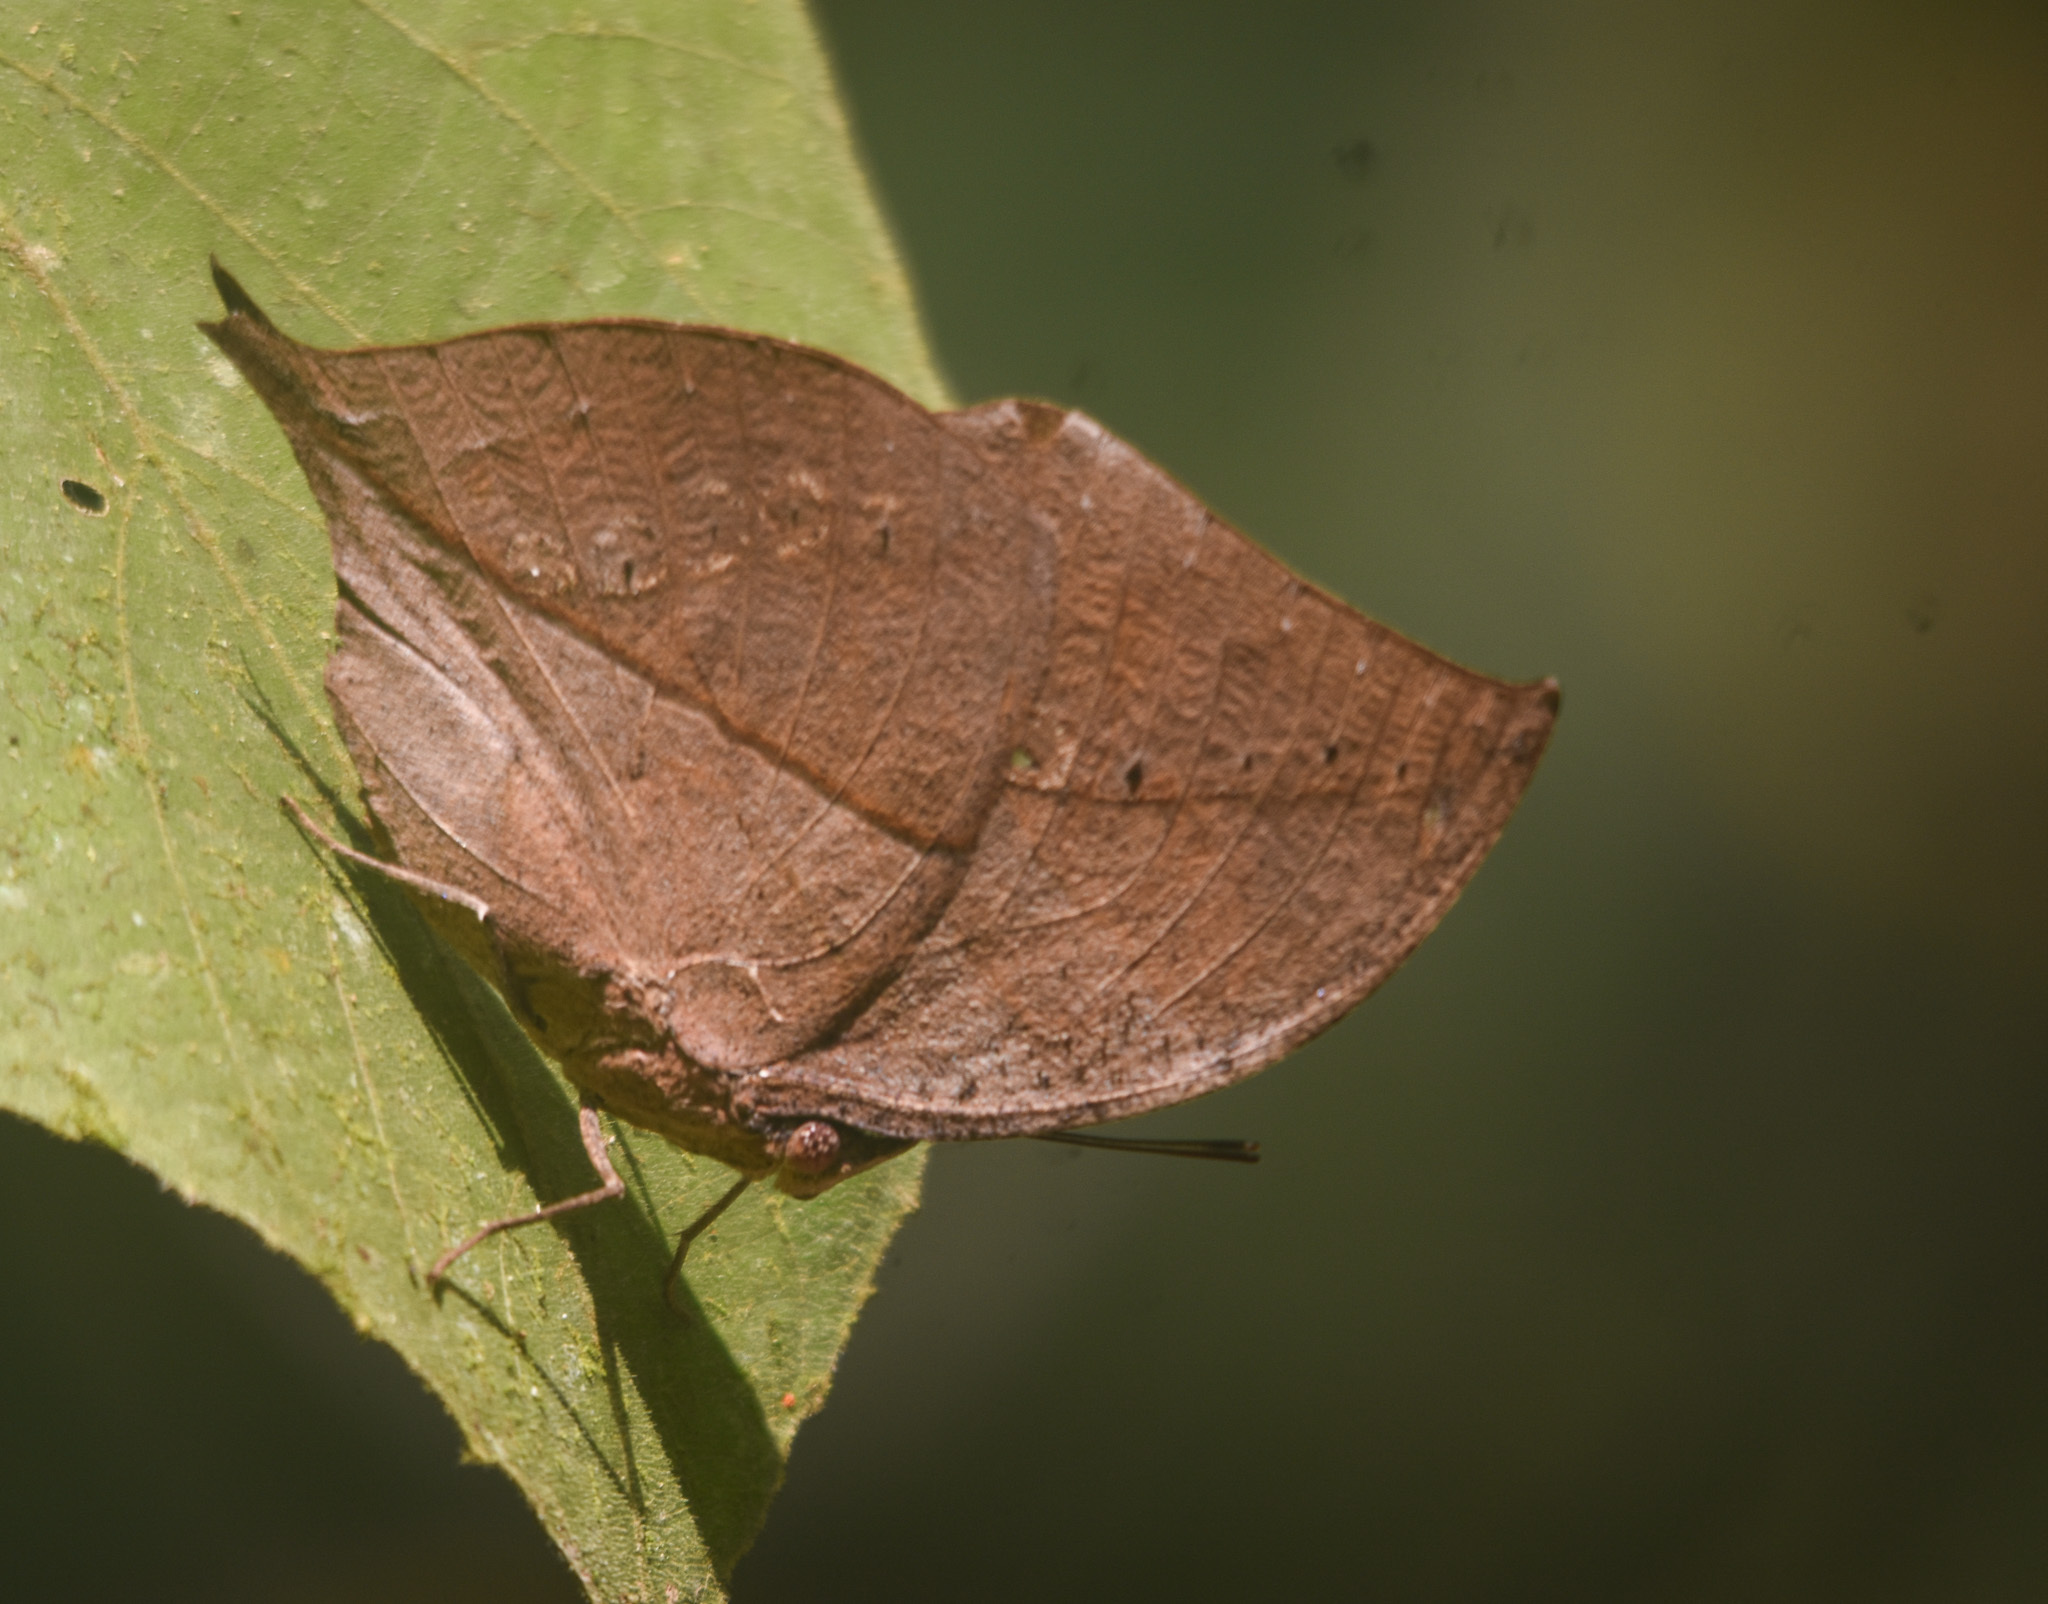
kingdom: Animalia
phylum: Arthropoda
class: Insecta
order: Lepidoptera
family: Nymphalidae
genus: Kallima
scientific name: Kallima inachus
